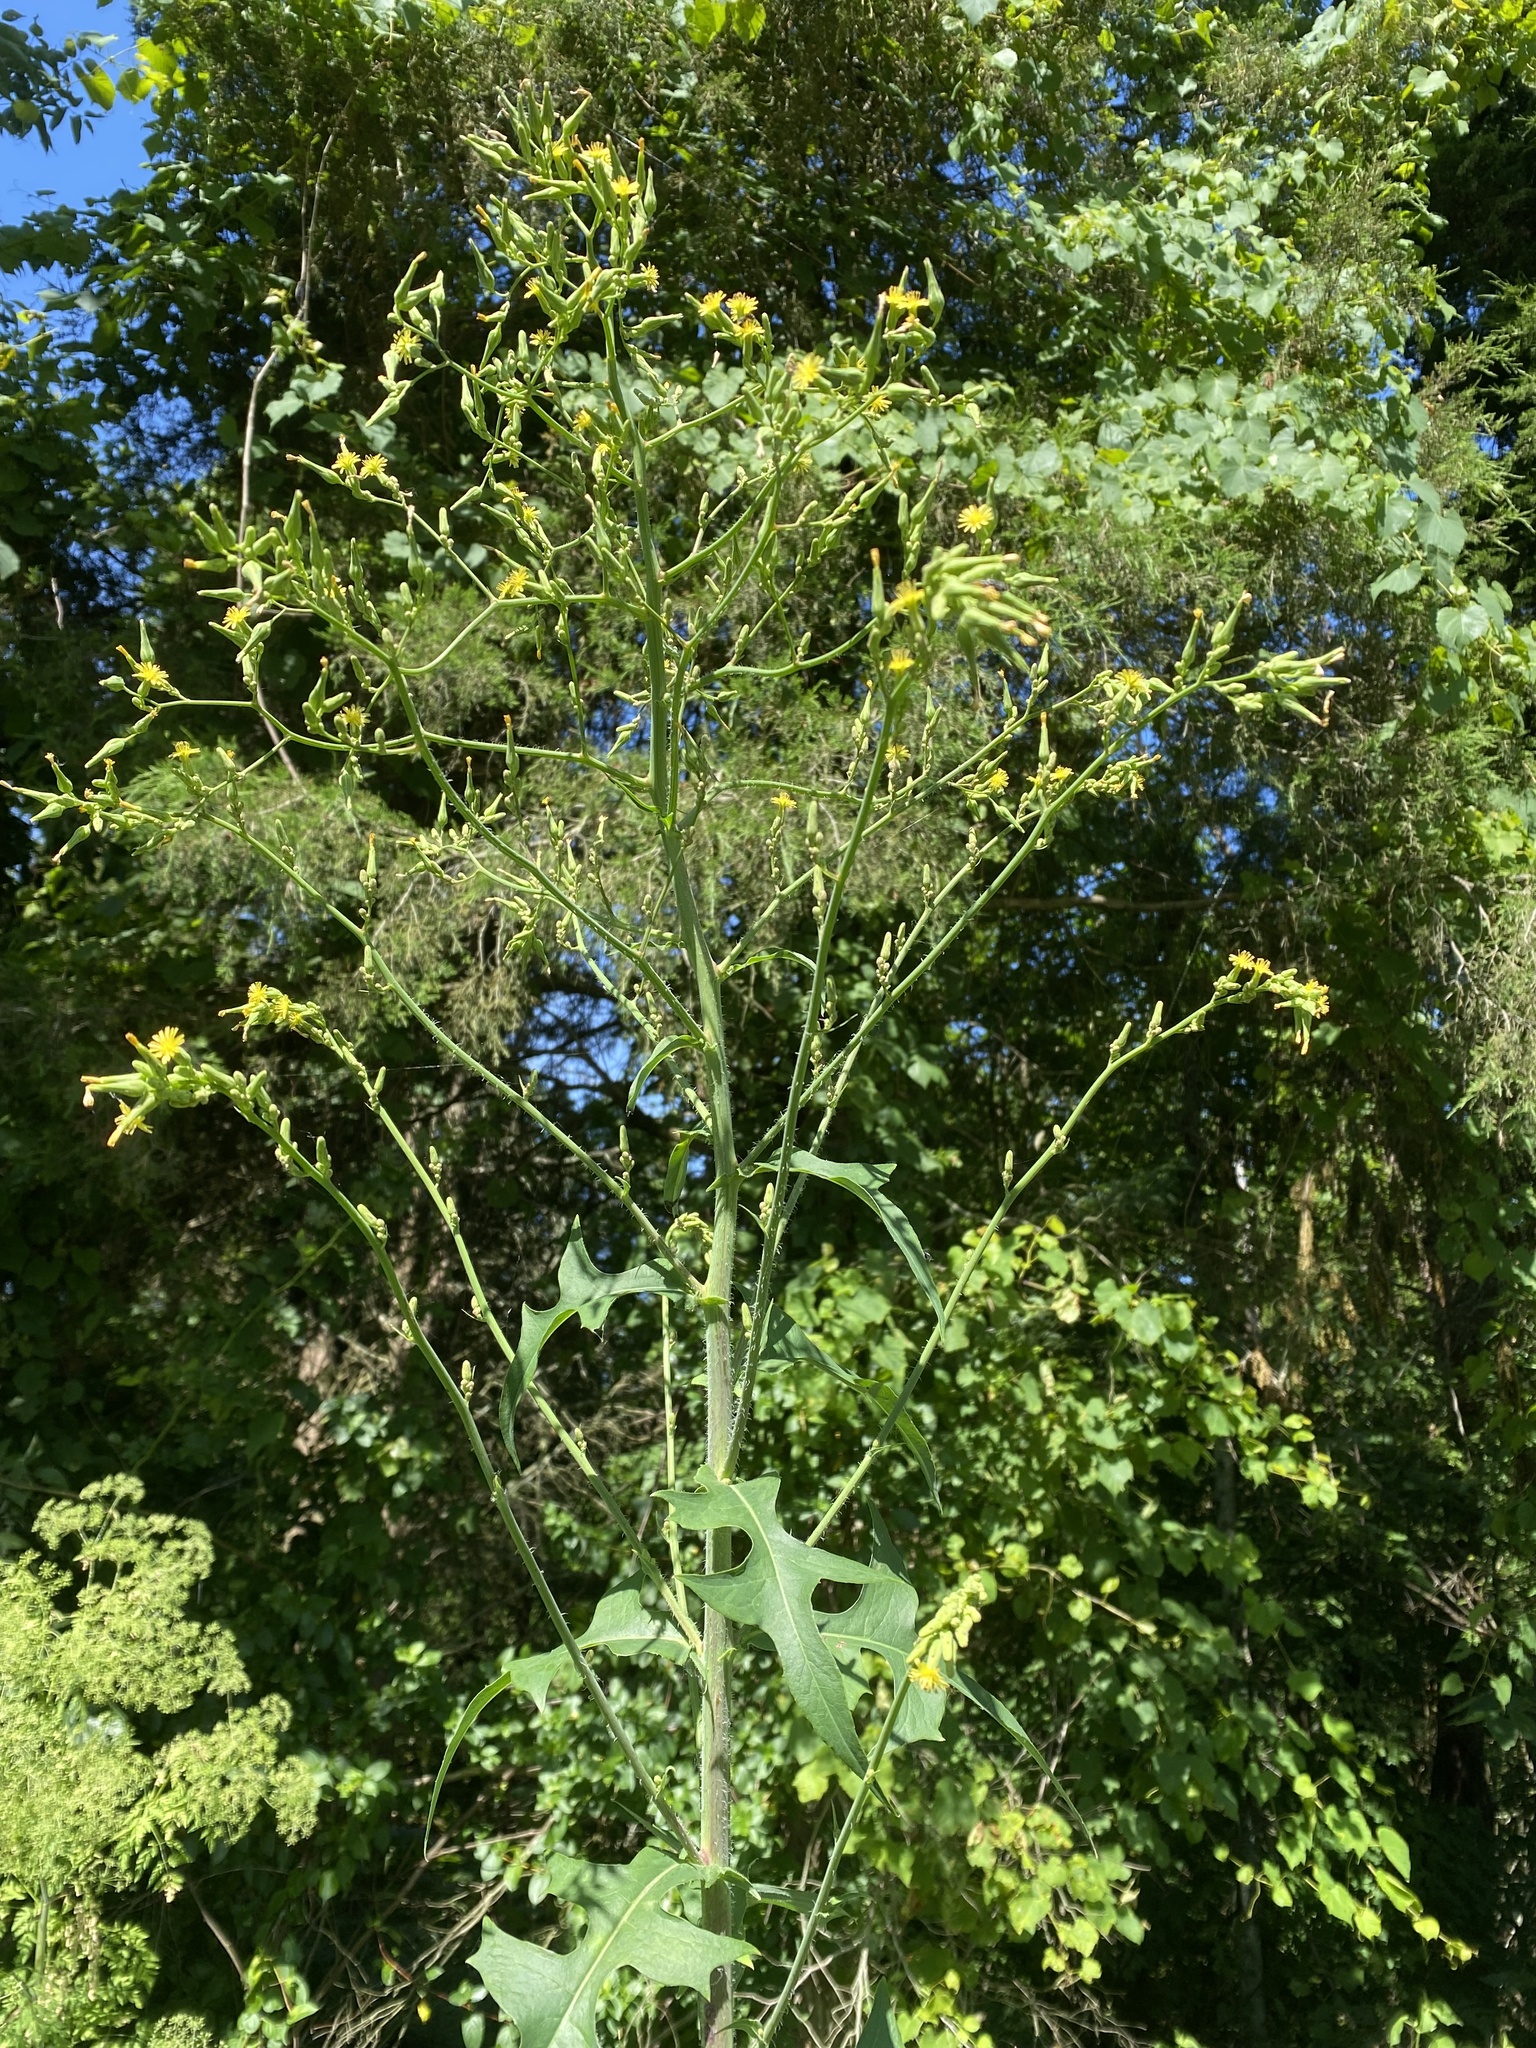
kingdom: Plantae
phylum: Tracheophyta
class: Magnoliopsida
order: Asterales
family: Asteraceae
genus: Lactuca
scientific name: Lactuca canadensis
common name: Canada lettuce
